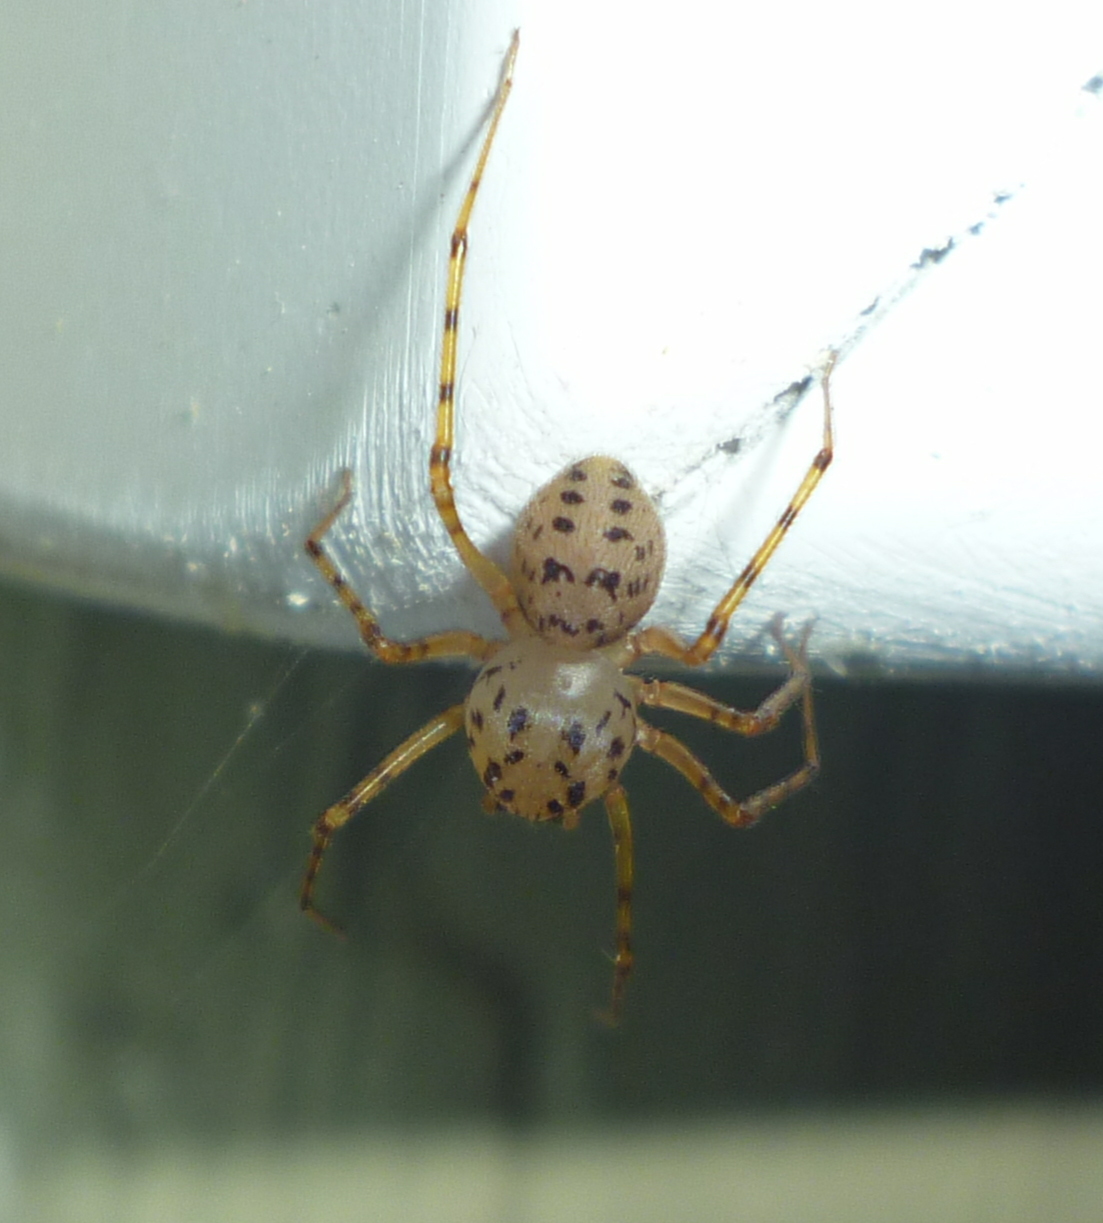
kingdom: Animalia
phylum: Arthropoda
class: Arachnida
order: Araneae
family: Scytodidae
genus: Scytodes
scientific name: Scytodes thoracica
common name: Spitting spider
